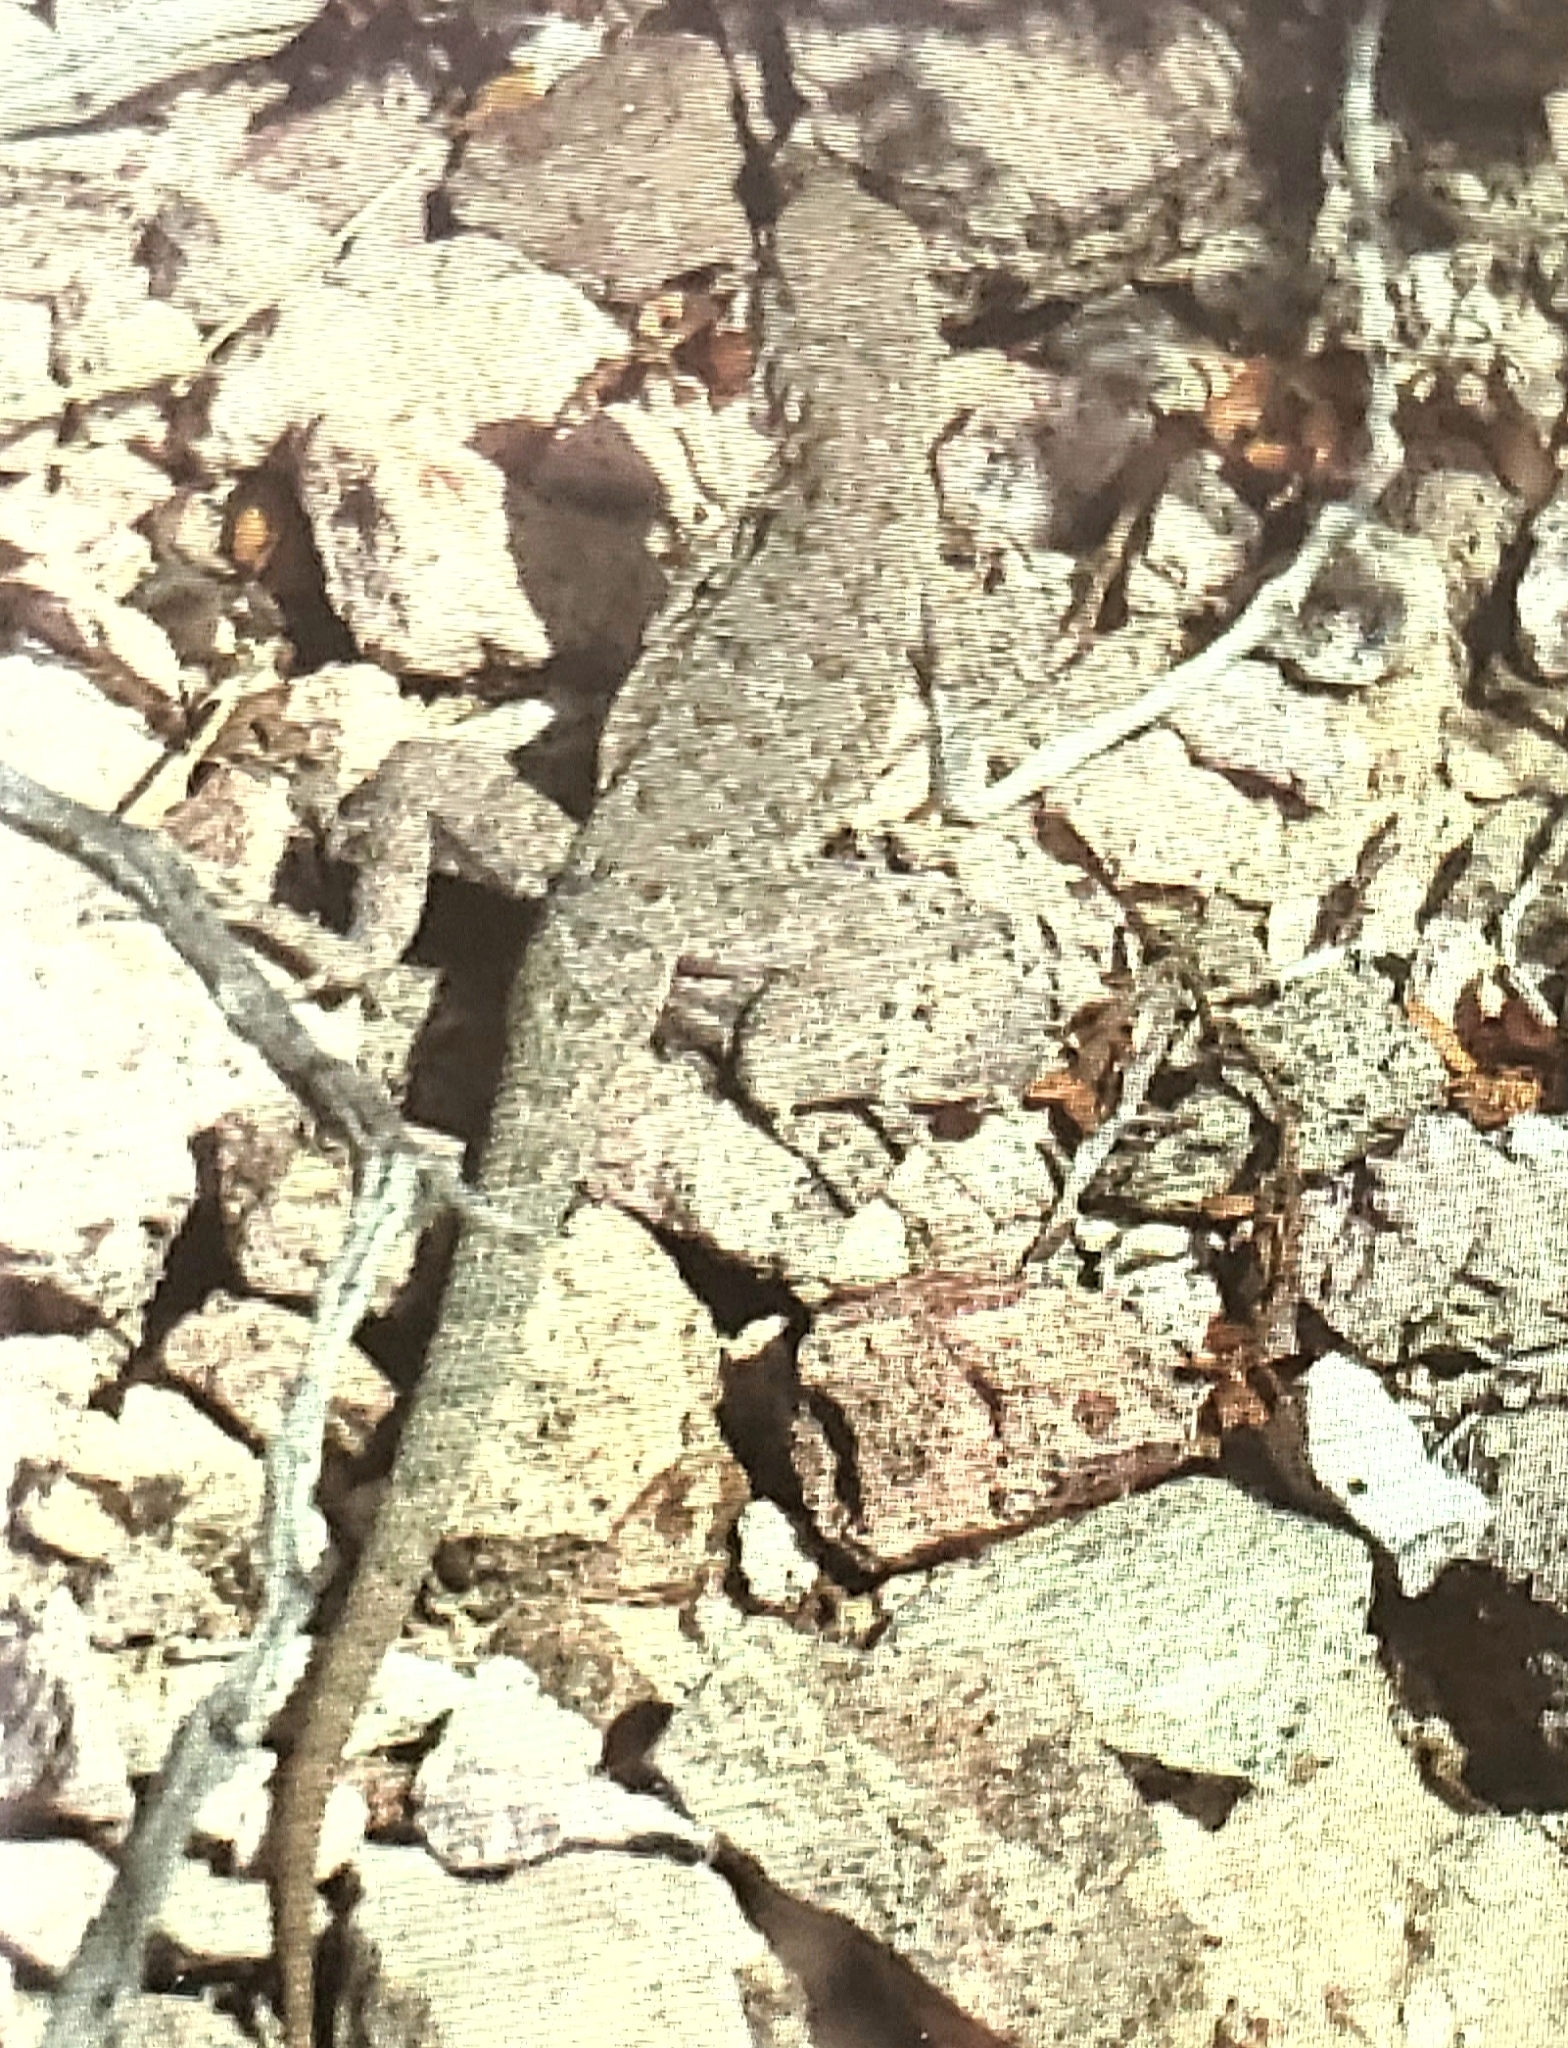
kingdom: Animalia
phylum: Chordata
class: Squamata
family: Phrynosomatidae
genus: Uta
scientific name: Uta stansburiana
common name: Side-blotched lizard
